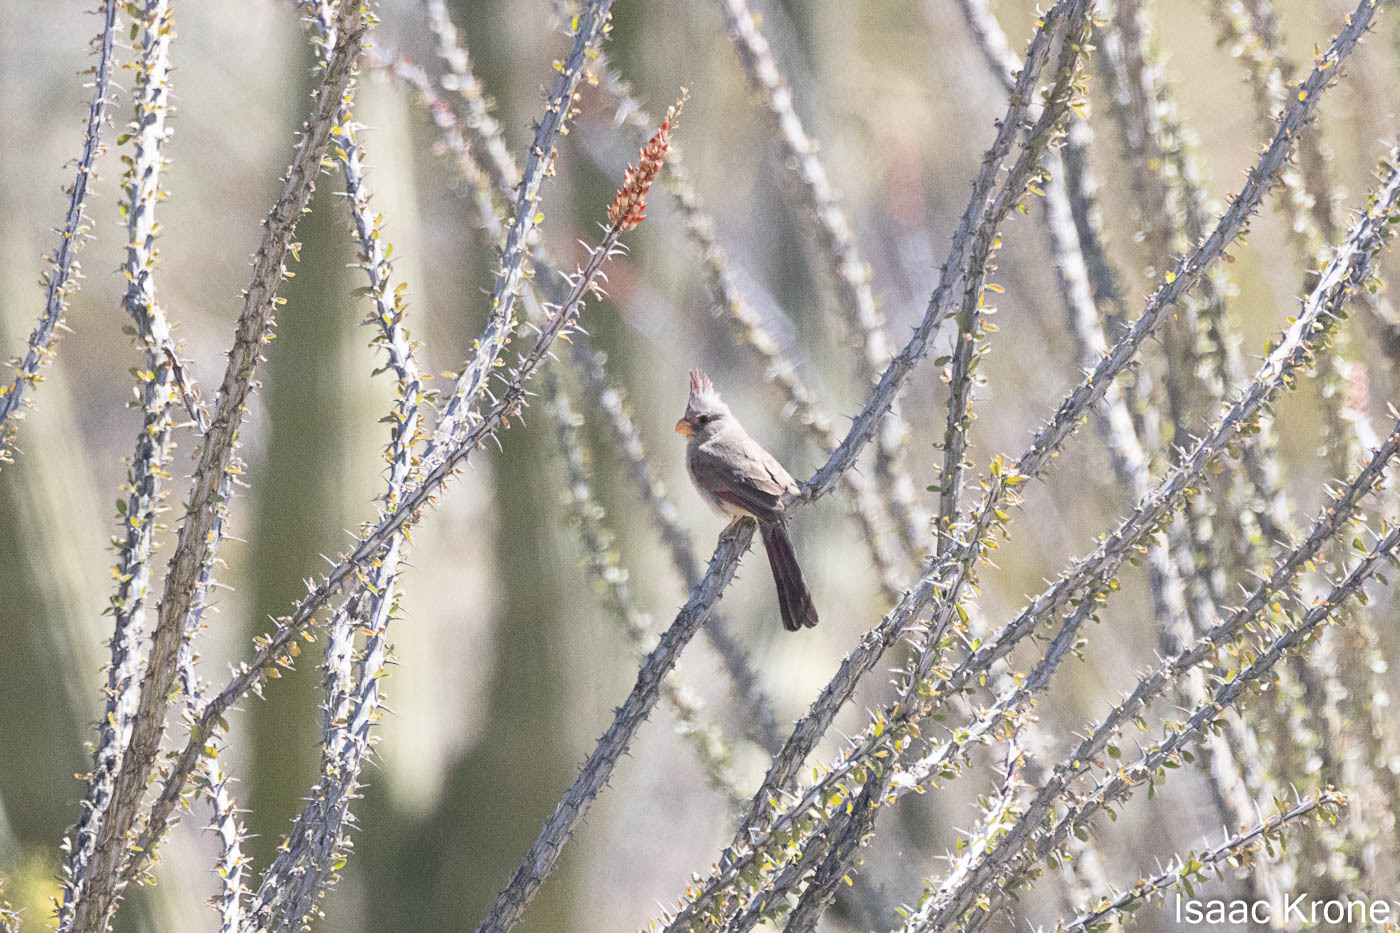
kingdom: Animalia
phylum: Chordata
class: Aves
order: Passeriformes
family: Cardinalidae
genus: Cardinalis
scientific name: Cardinalis sinuatus
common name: Pyrrhuloxia
